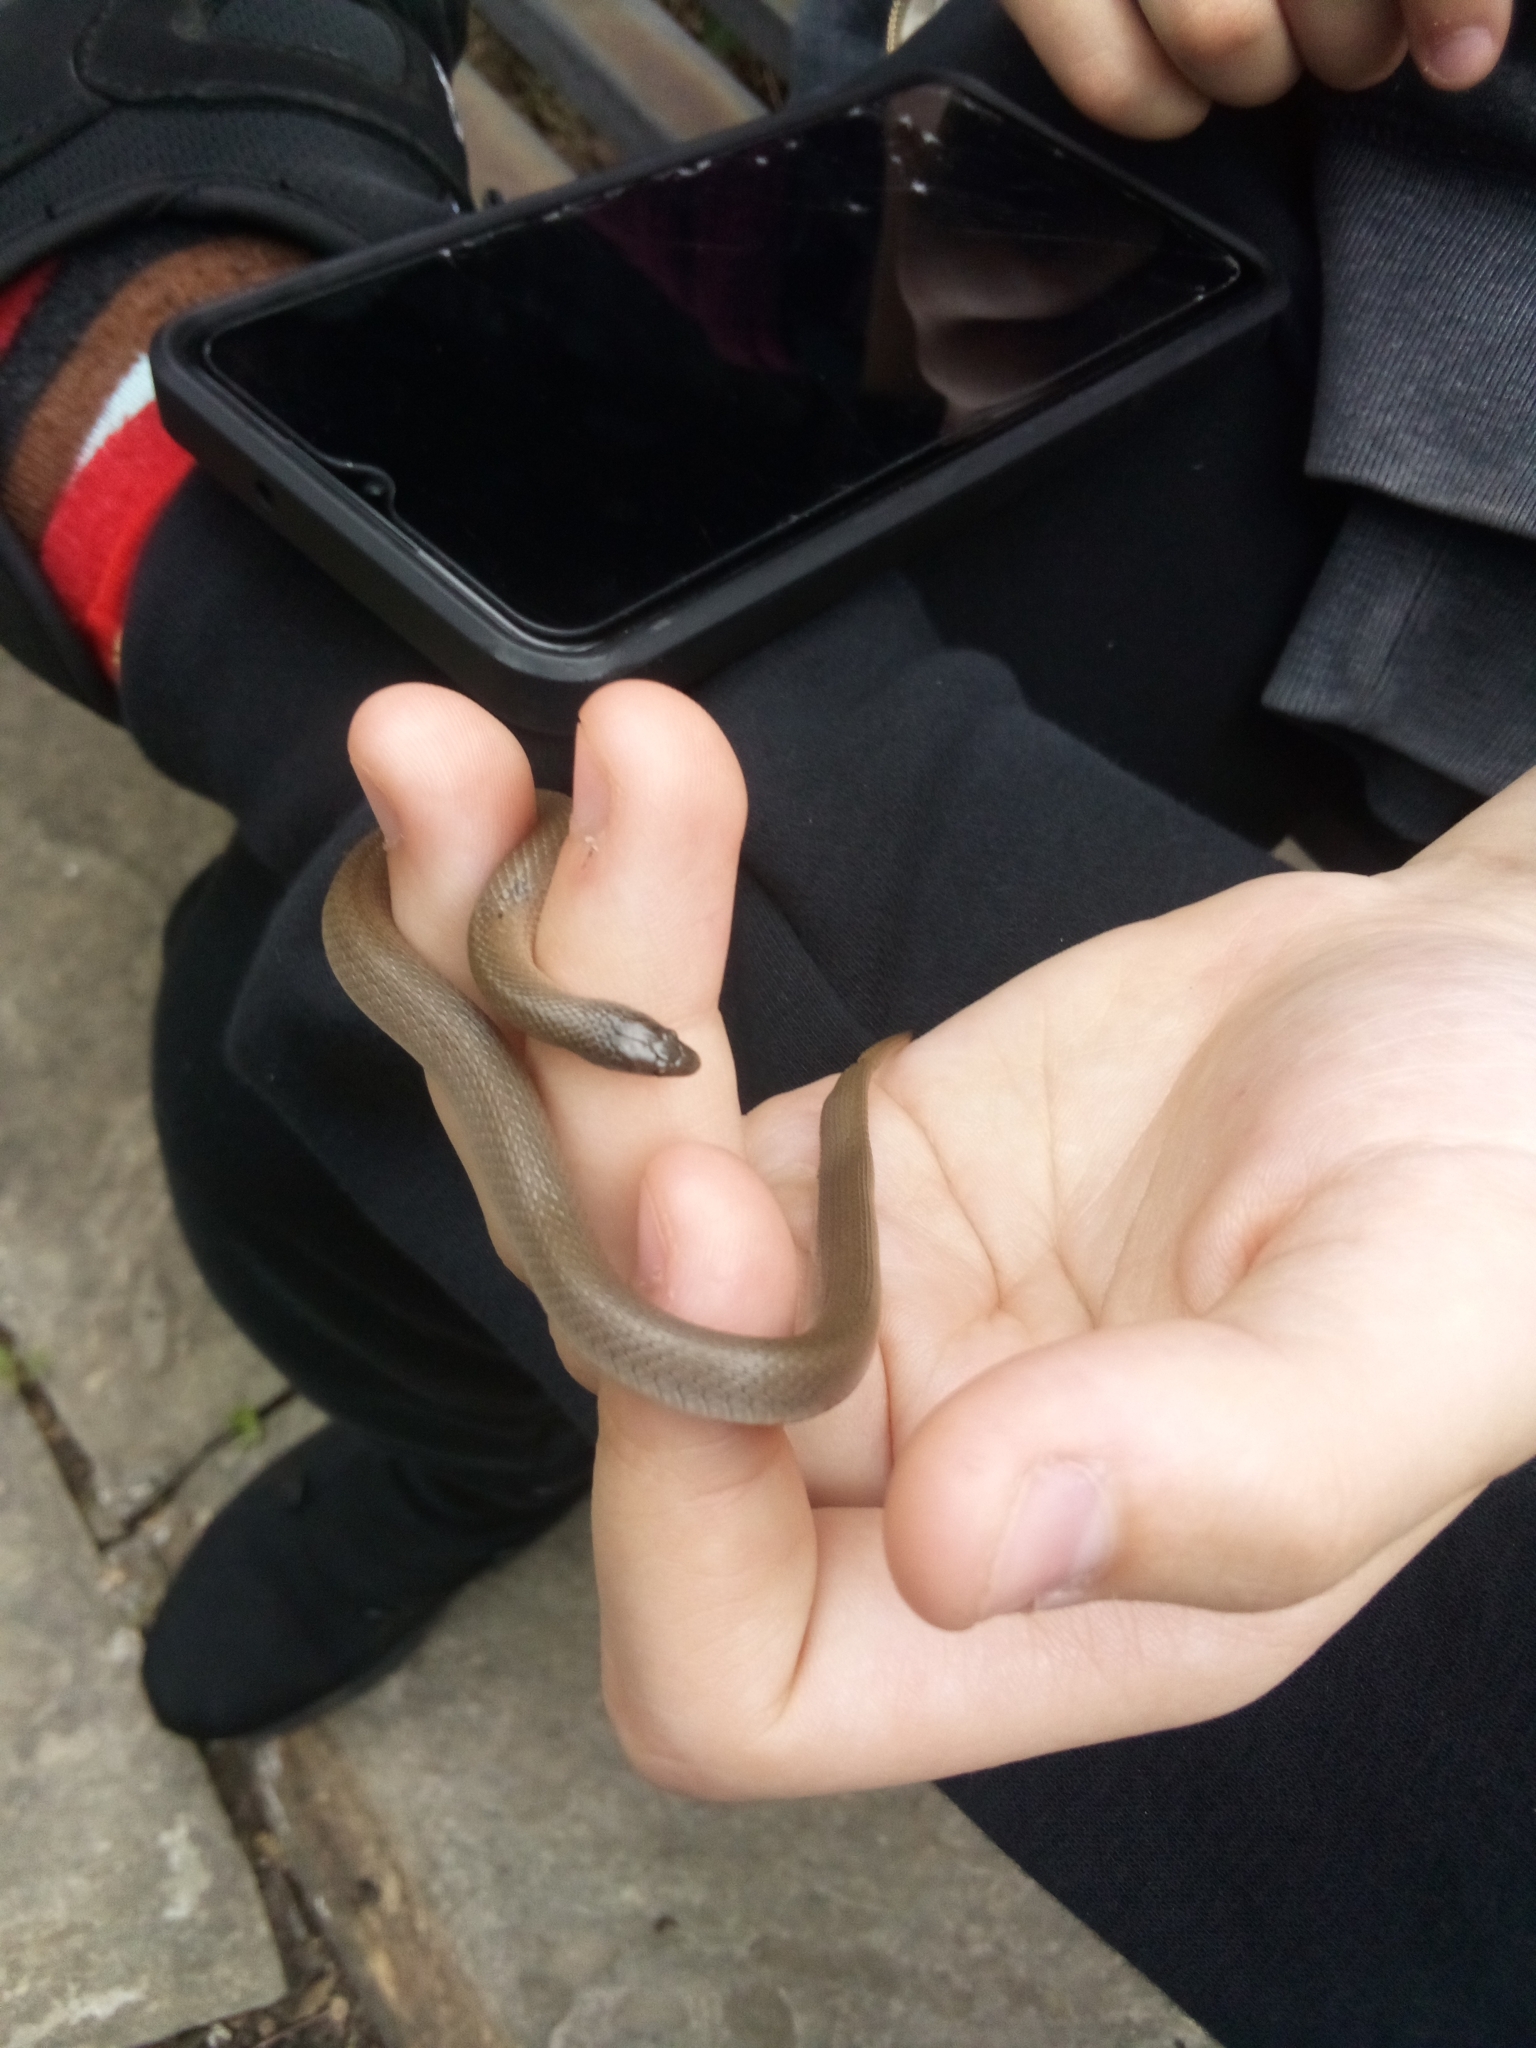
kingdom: Animalia
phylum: Chordata
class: Squamata
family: Colubridae
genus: Haldea
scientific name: Haldea striatula
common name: Rough earth snake
